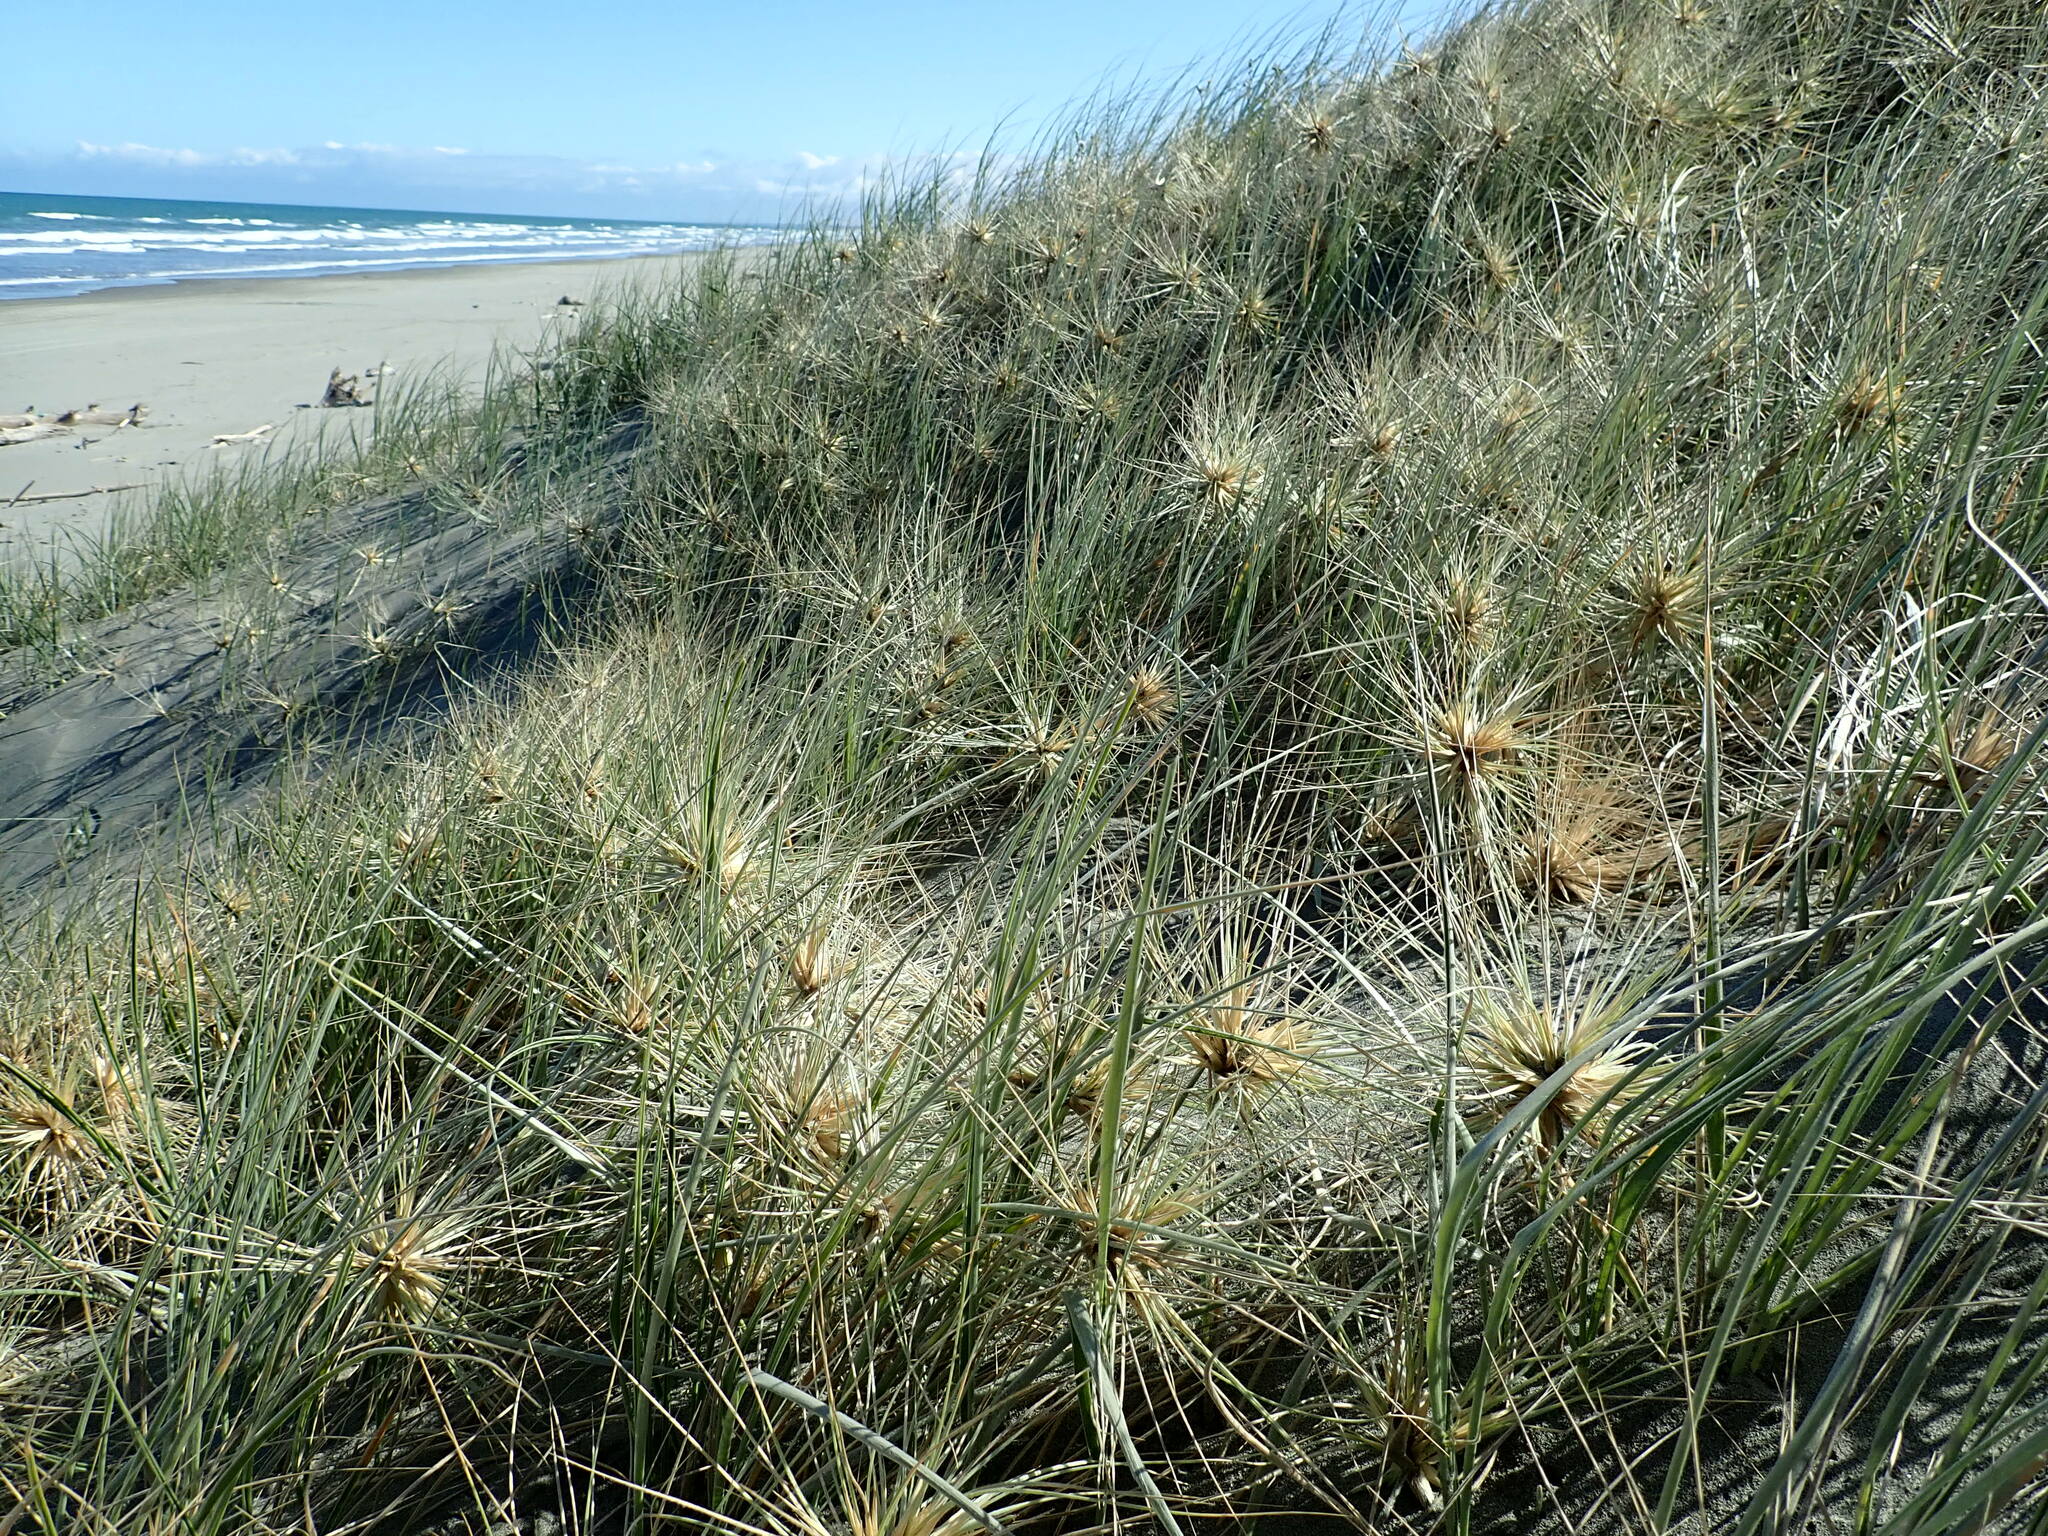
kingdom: Plantae
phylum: Tracheophyta
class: Liliopsida
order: Poales
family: Poaceae
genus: Spinifex
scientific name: Spinifex sericeus
